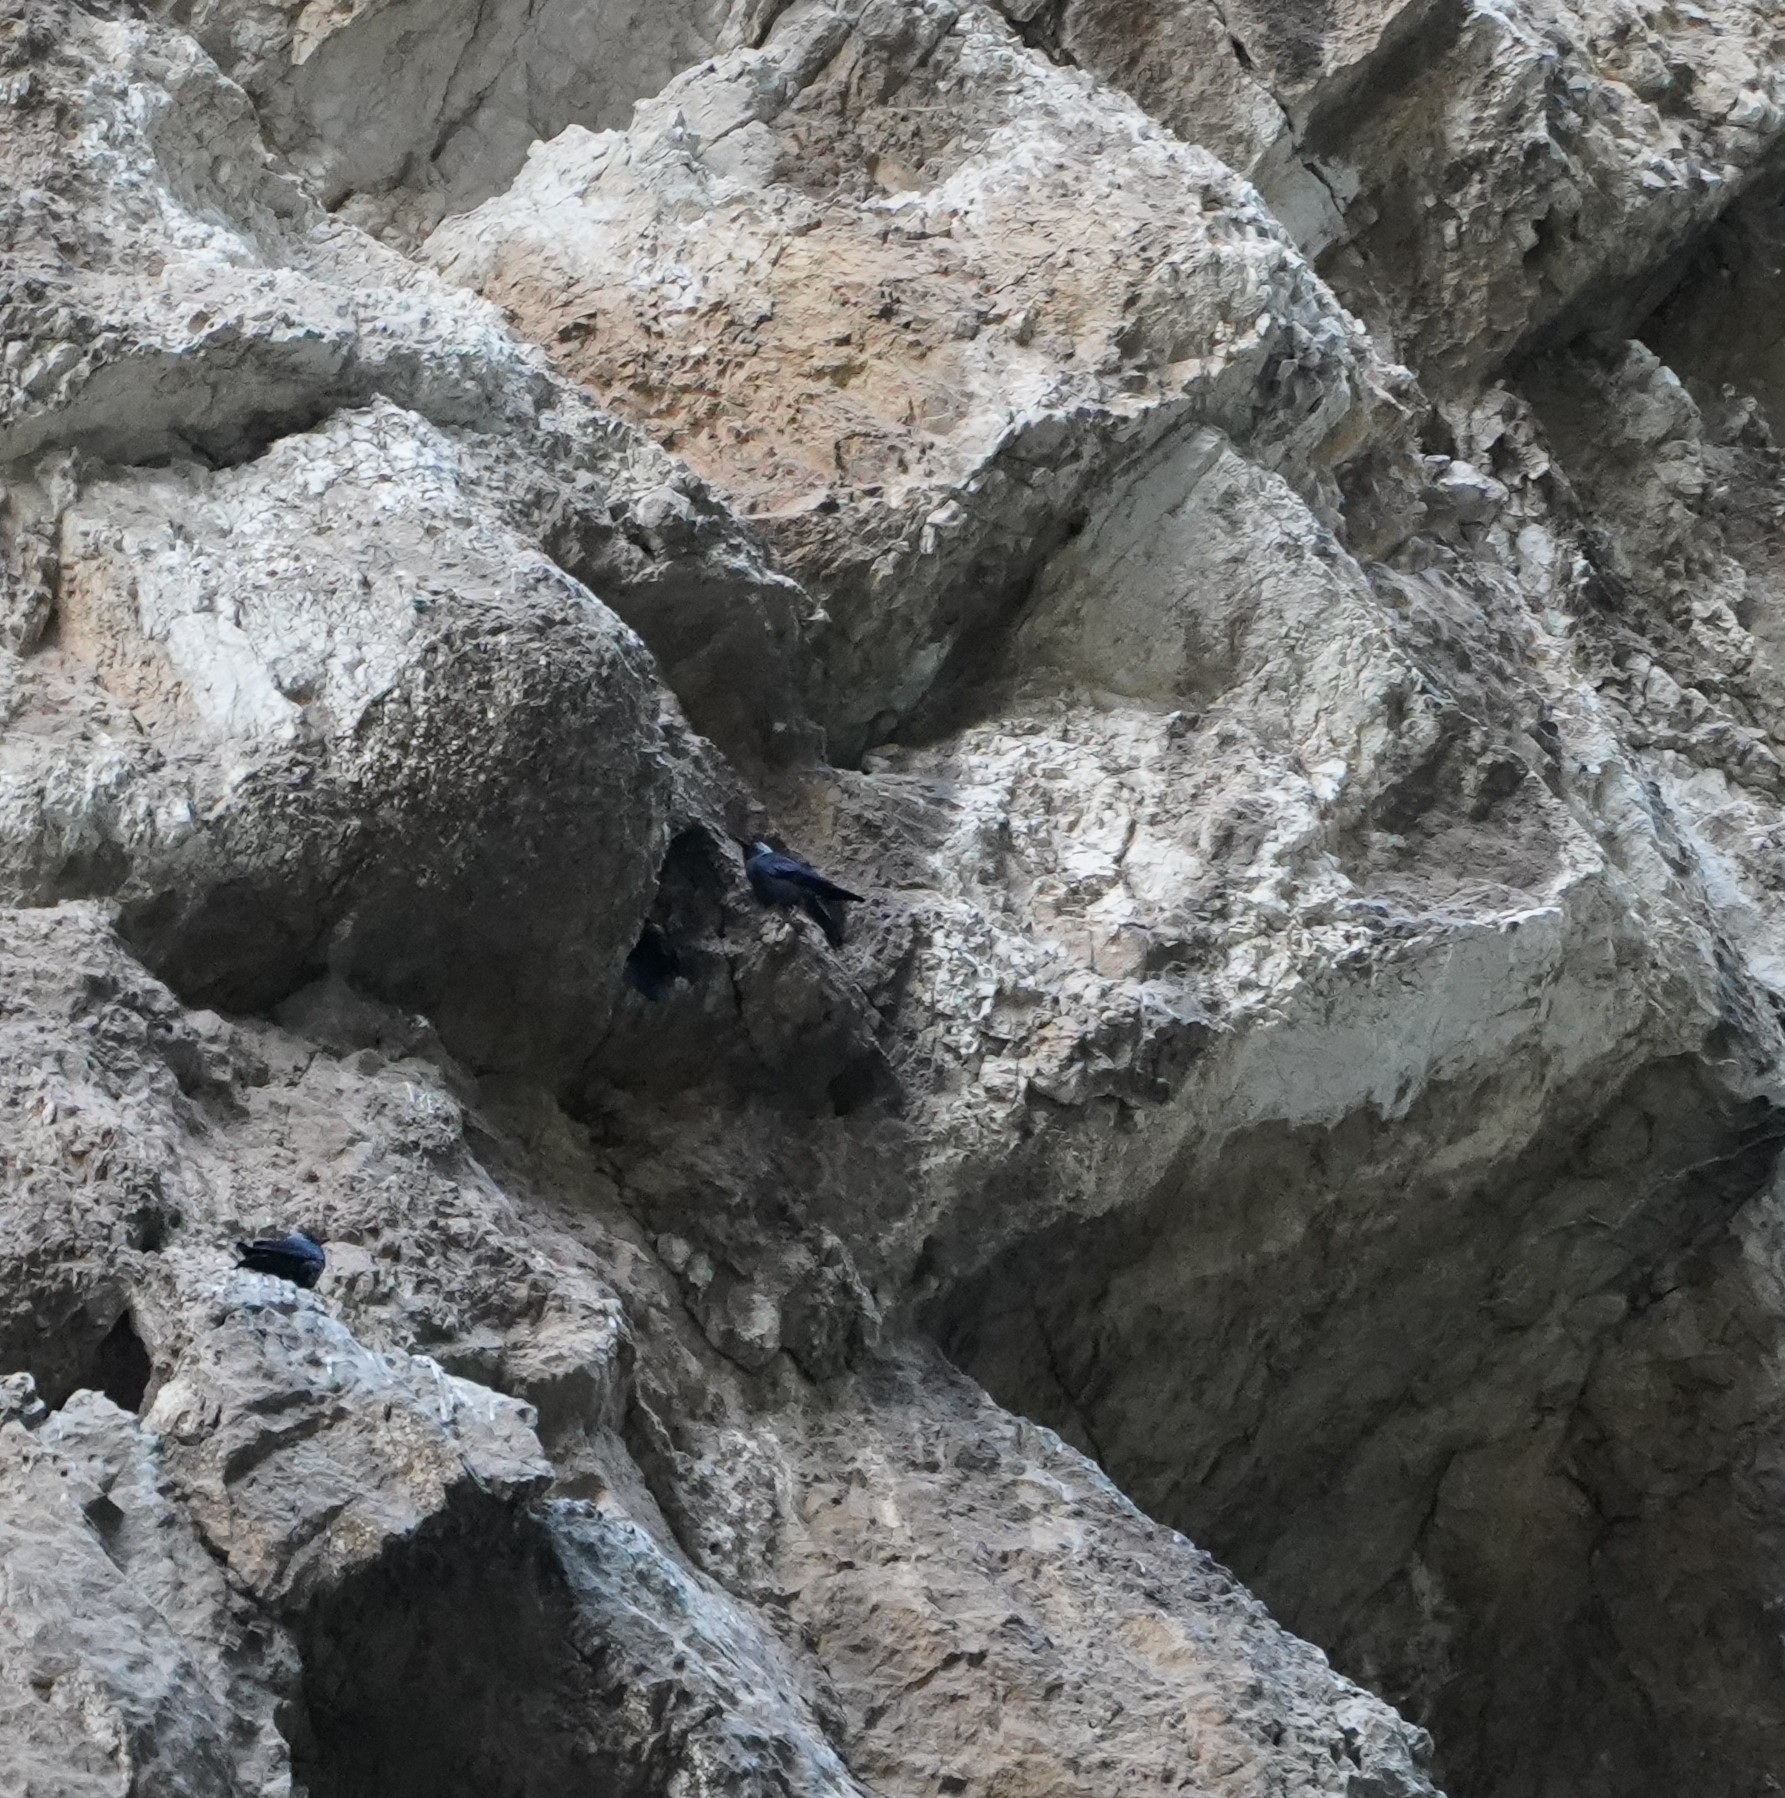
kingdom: Animalia
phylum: Chordata
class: Aves
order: Passeriformes
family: Corvidae
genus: Coloeus
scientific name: Coloeus monedula
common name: Western jackdaw
